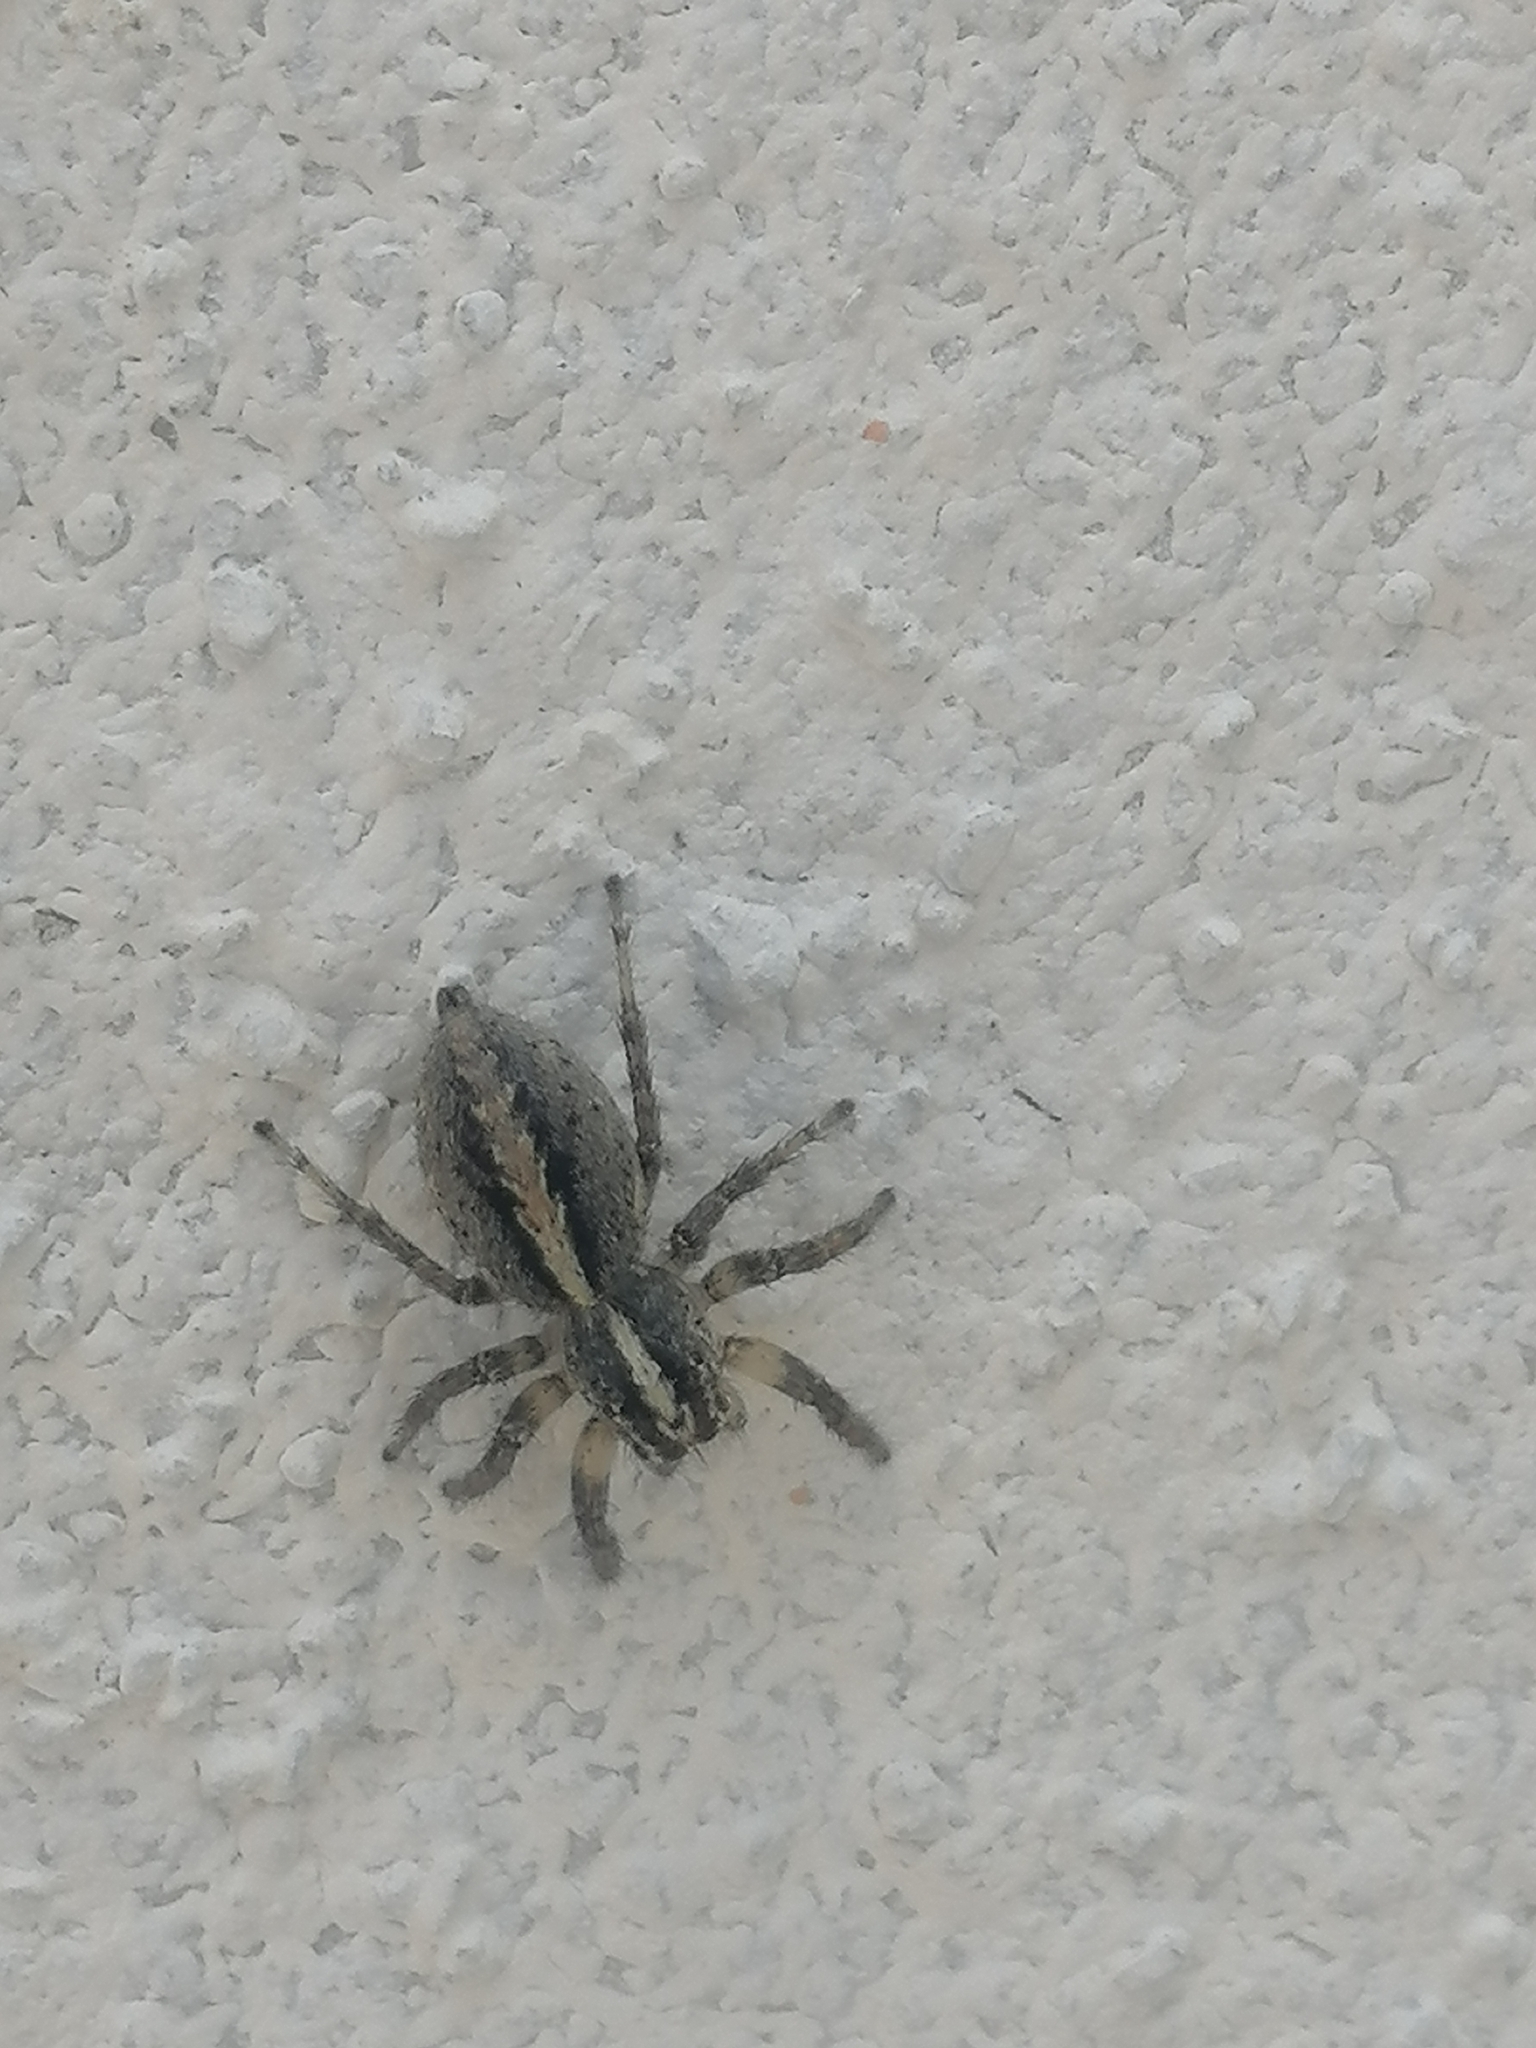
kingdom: Animalia
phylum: Arthropoda
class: Arachnida
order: Araneae
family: Salticidae
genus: Frigga
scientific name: Frigga crocuta
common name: Jumping spiders
